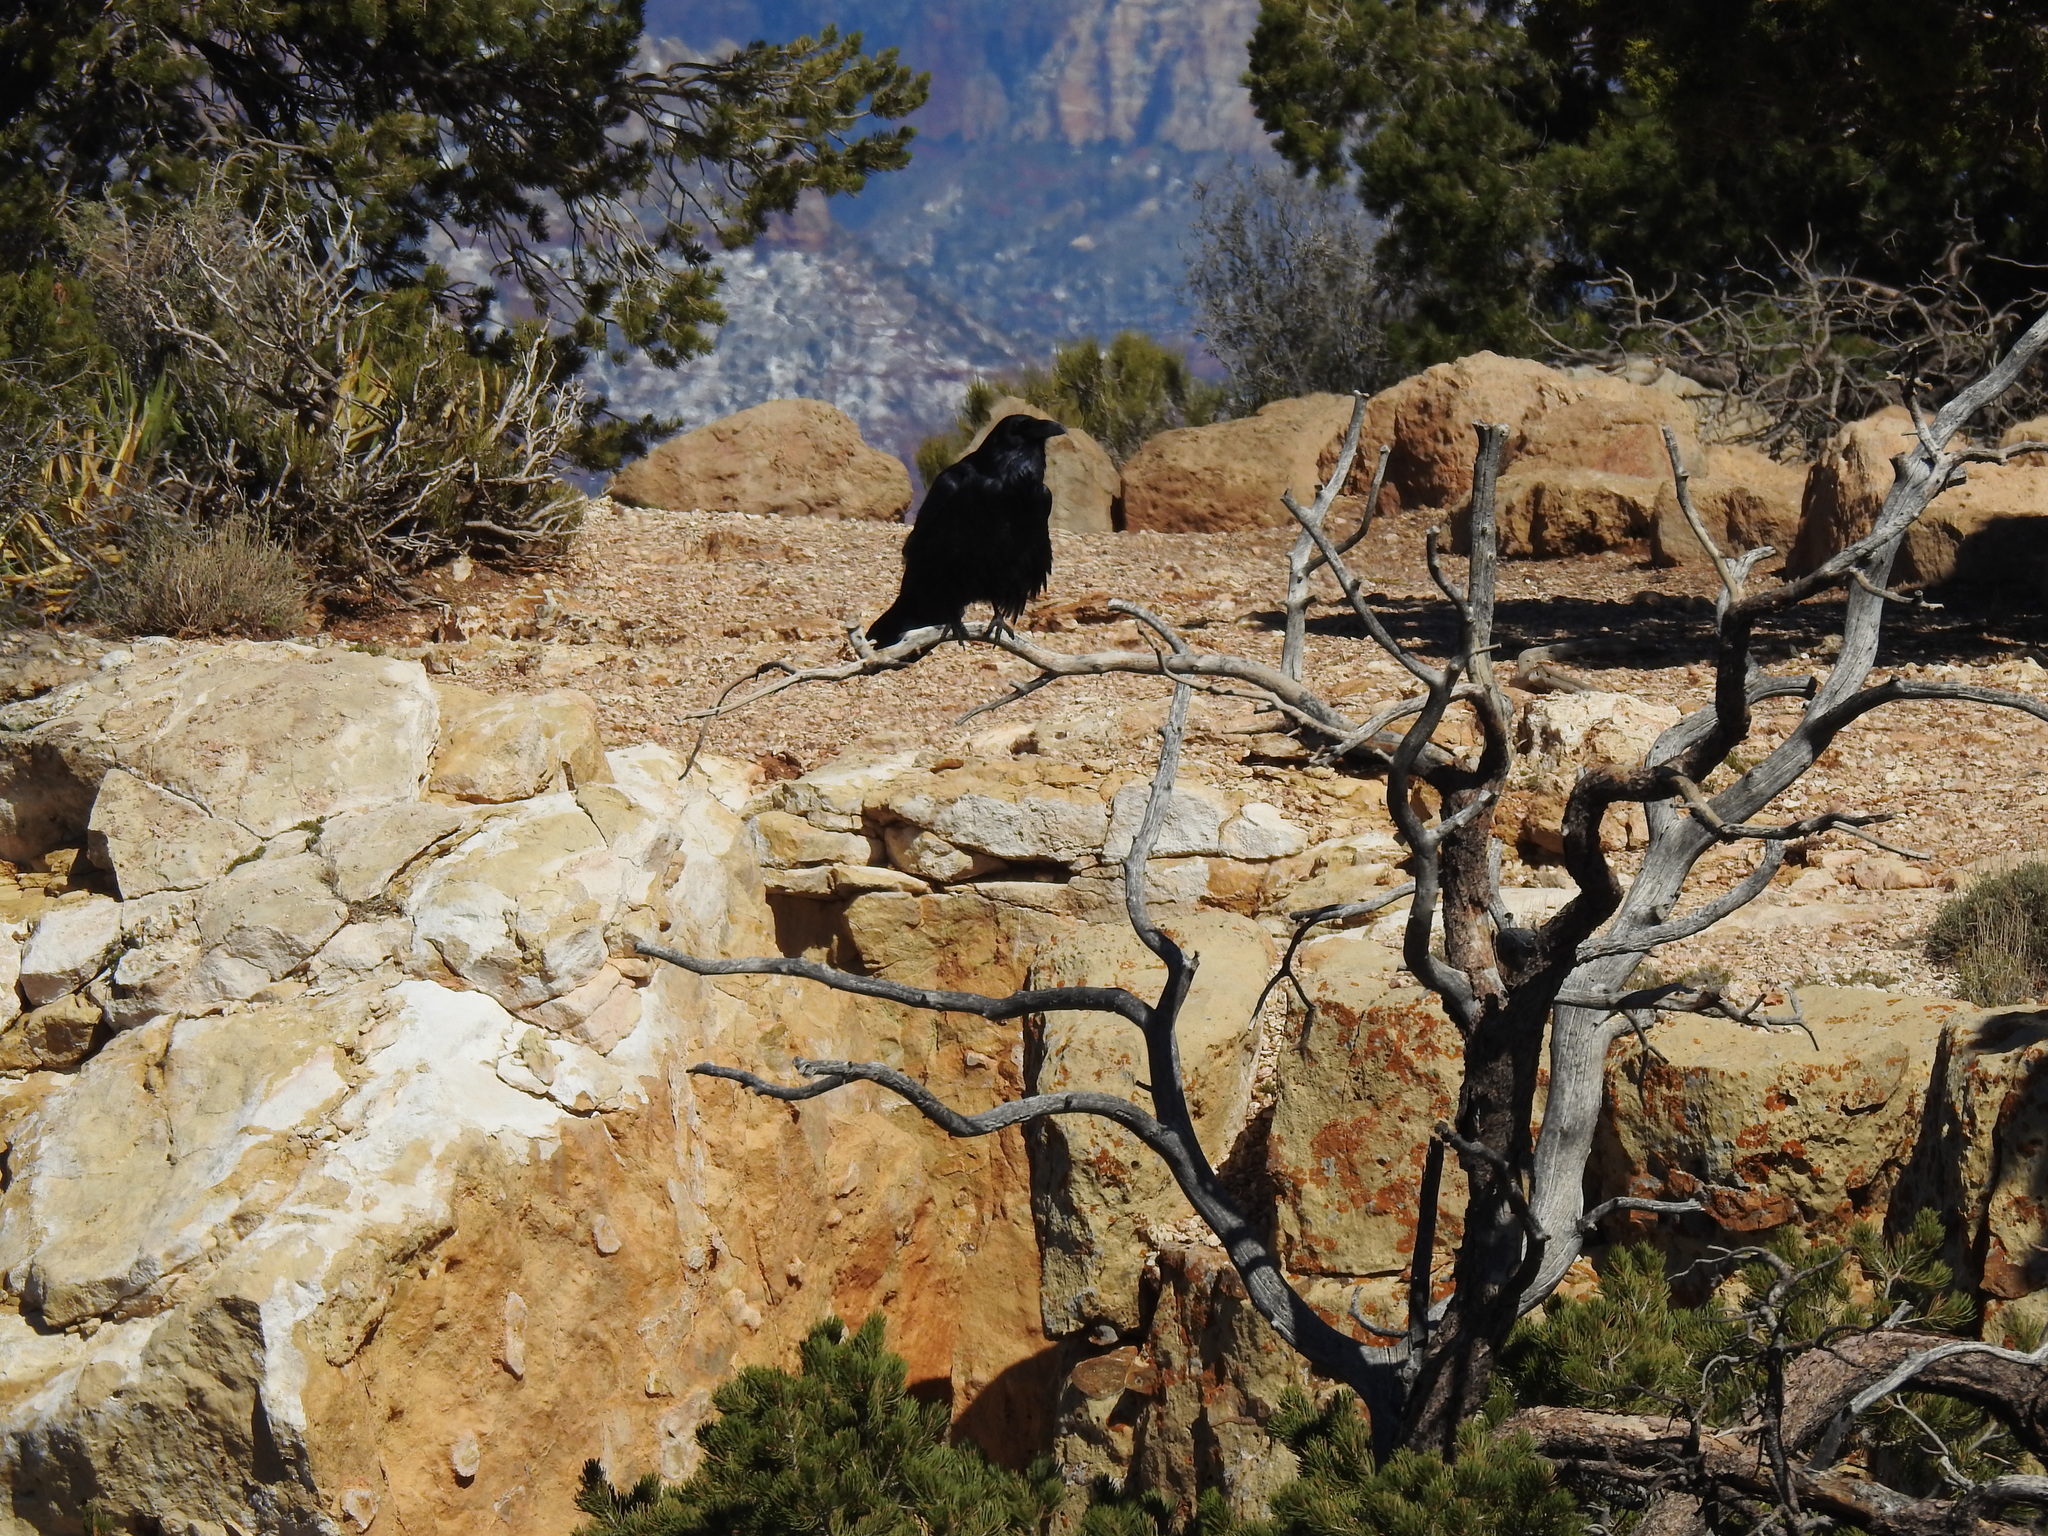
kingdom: Animalia
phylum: Chordata
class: Aves
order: Passeriformes
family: Corvidae
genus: Corvus
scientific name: Corvus corax
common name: Common raven
